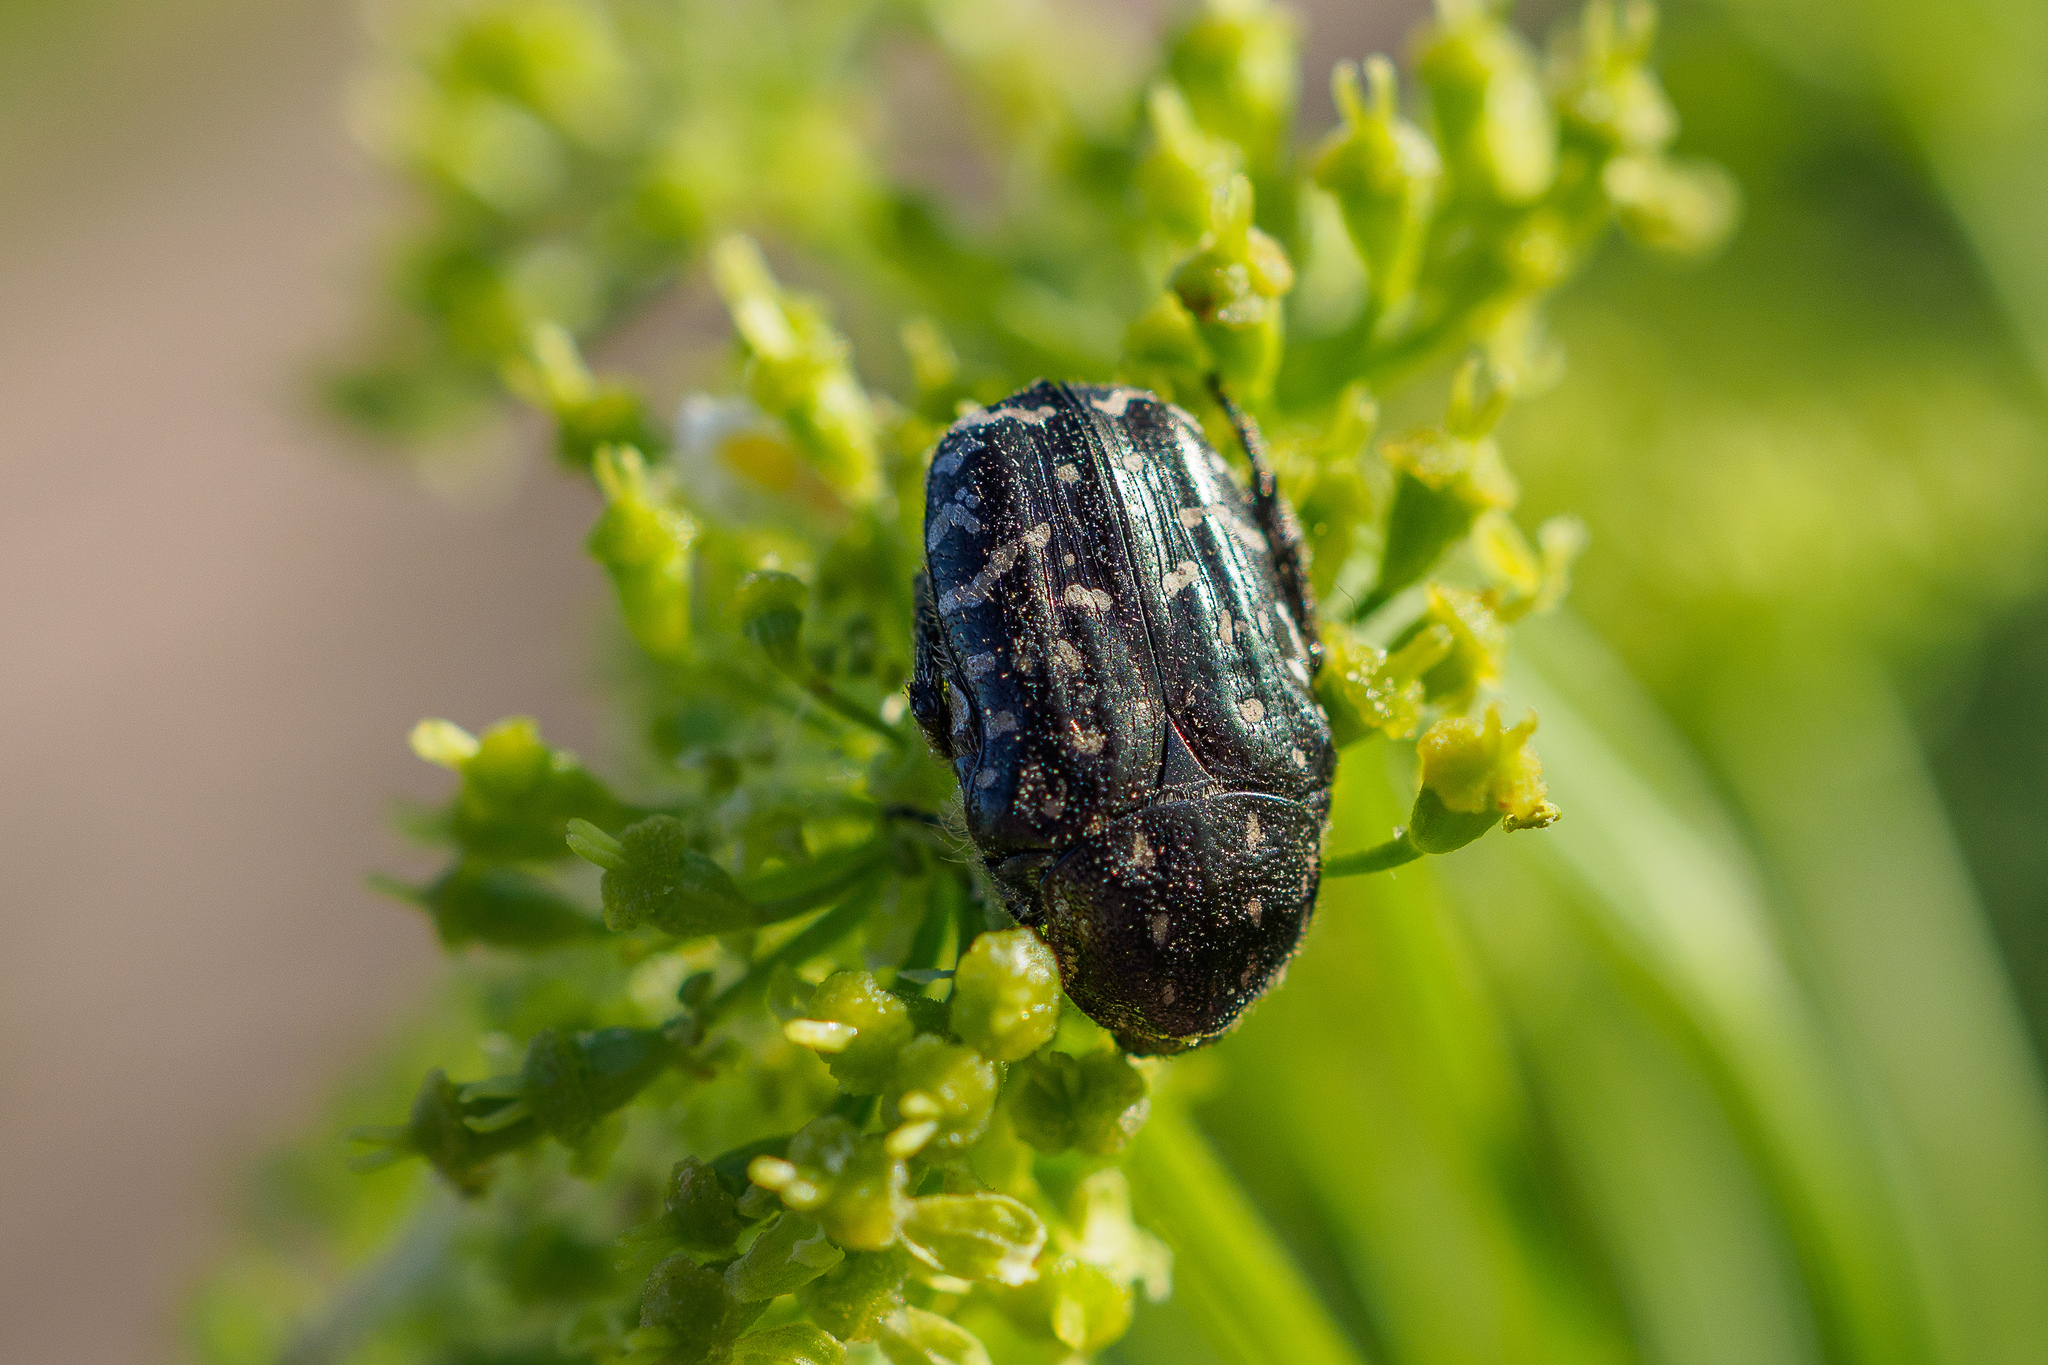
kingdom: Animalia
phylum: Arthropoda
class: Insecta
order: Coleoptera
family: Scarabaeidae
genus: Oxythyrea
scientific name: Oxythyrea funesta
